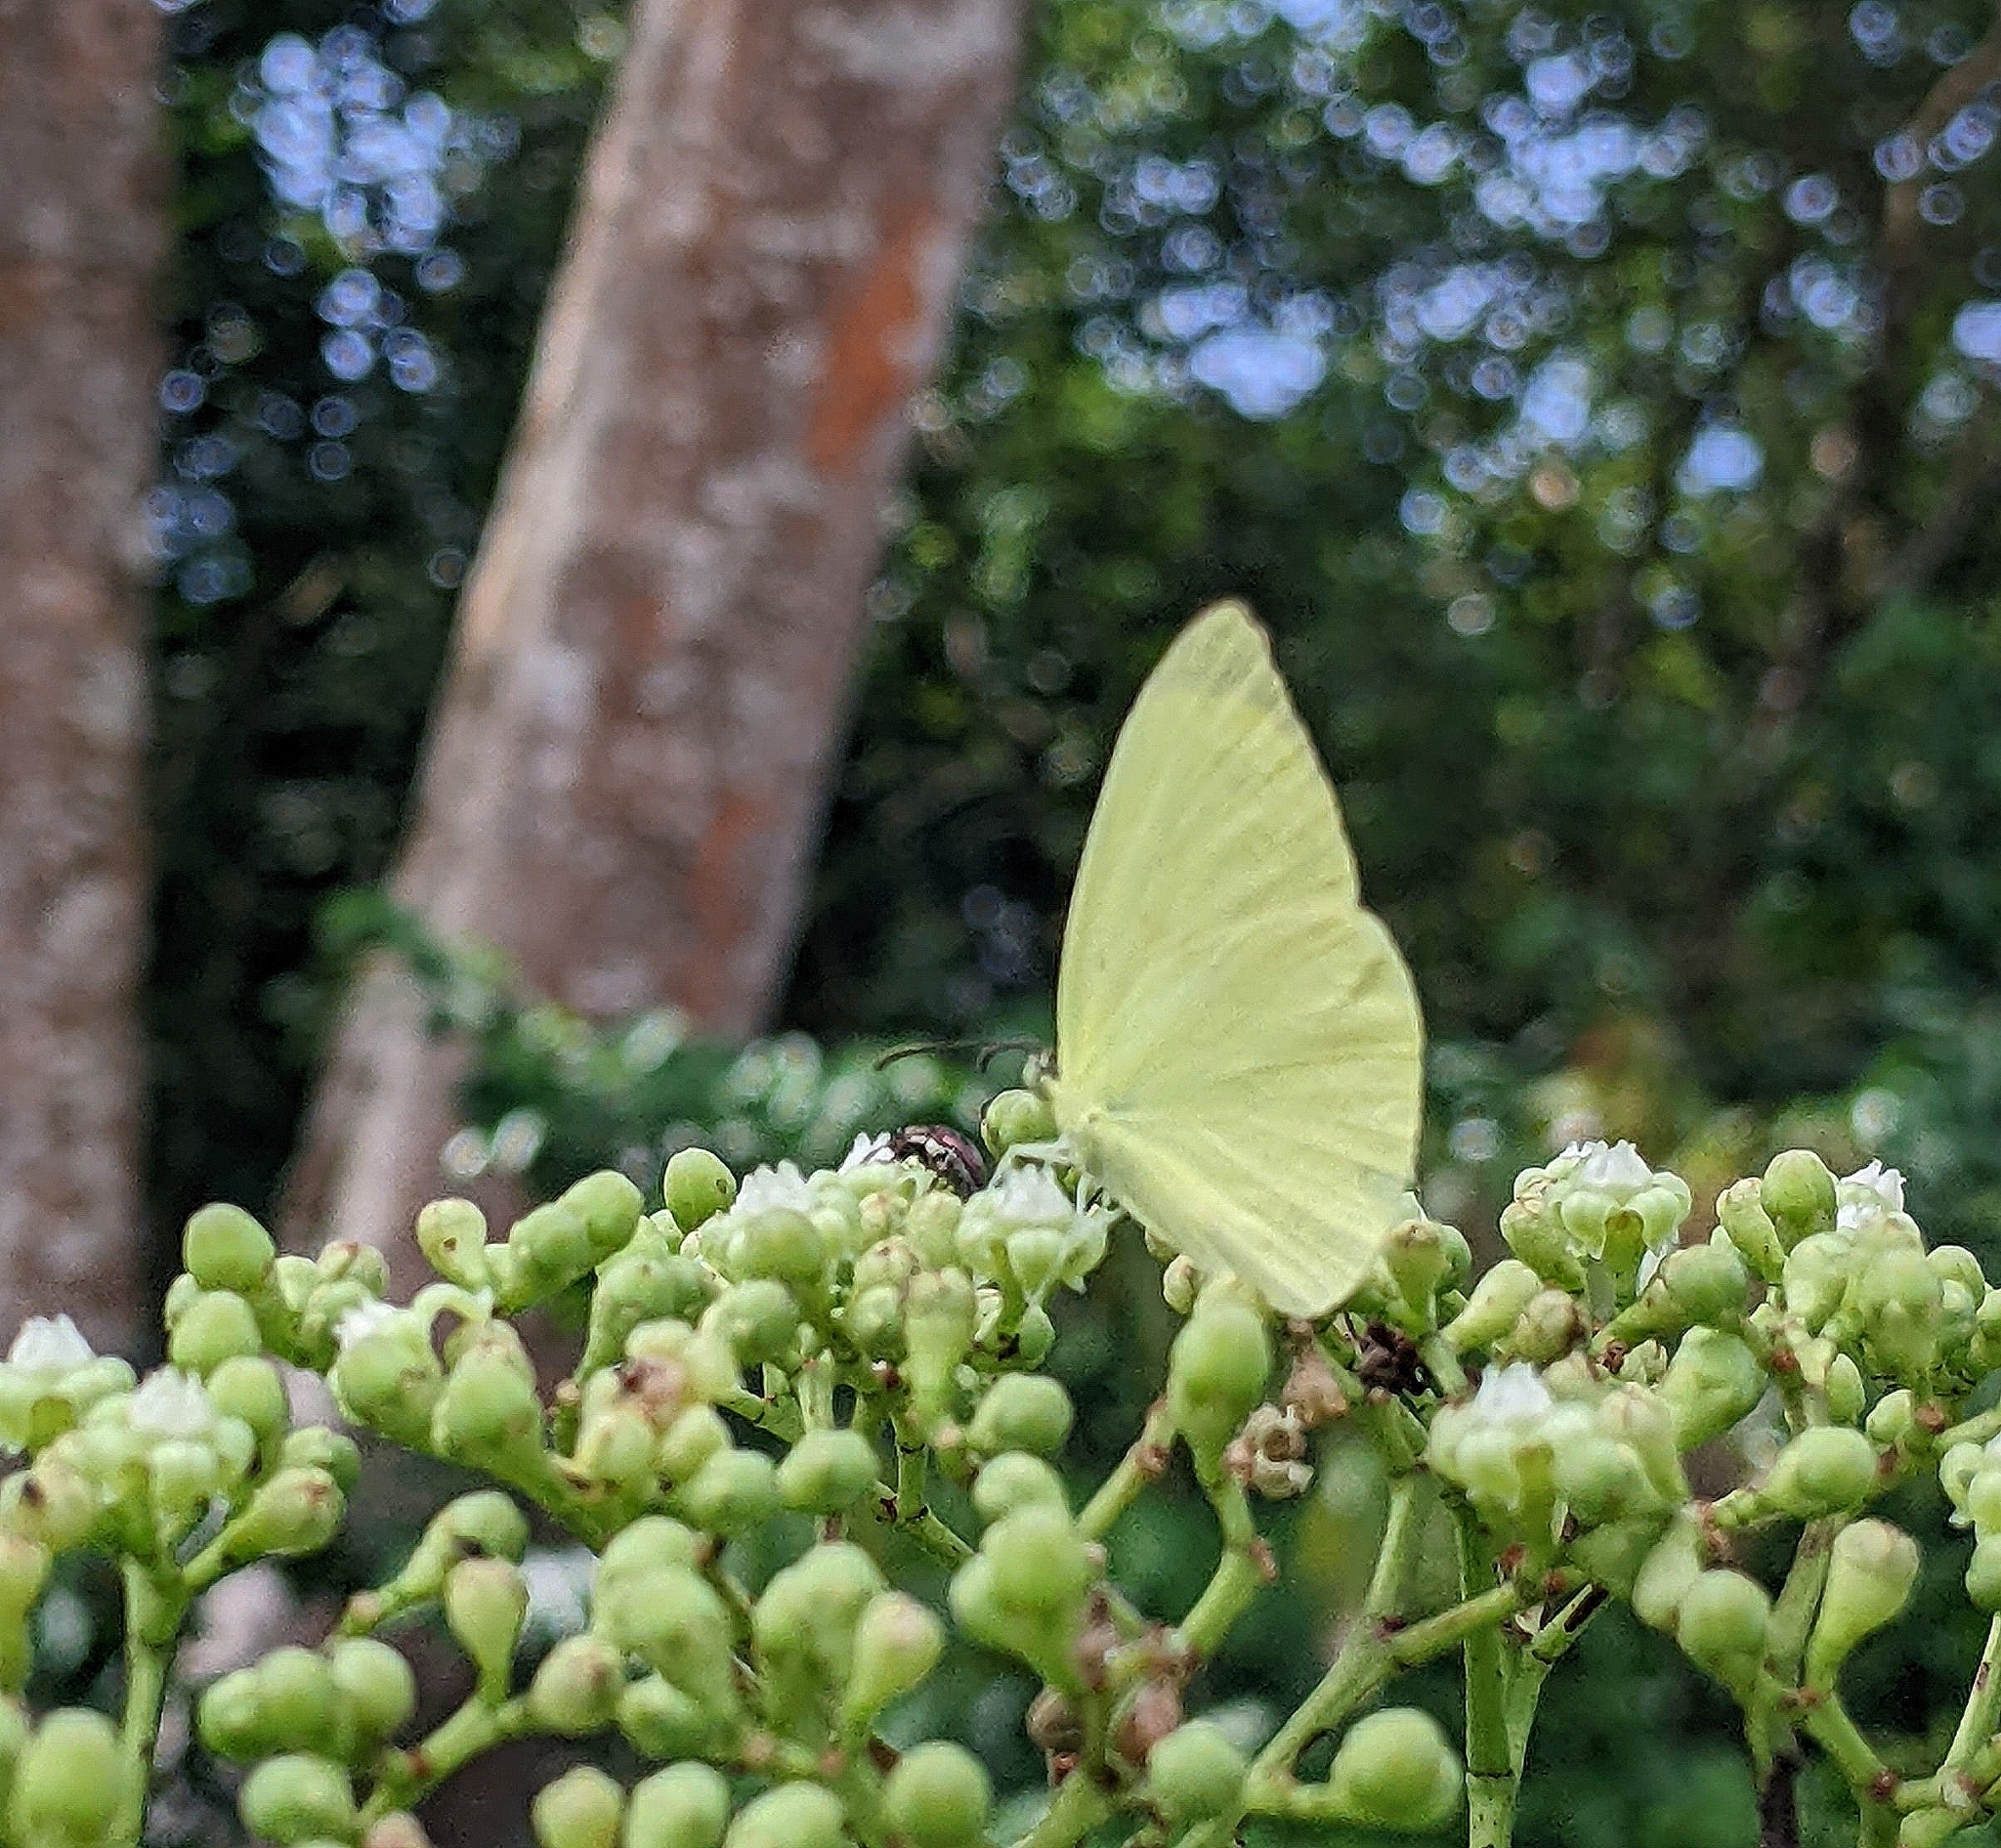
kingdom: Animalia
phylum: Arthropoda
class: Insecta
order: Lepidoptera
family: Pieridae
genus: Gandaca
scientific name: Gandaca harina
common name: Tree yellow
